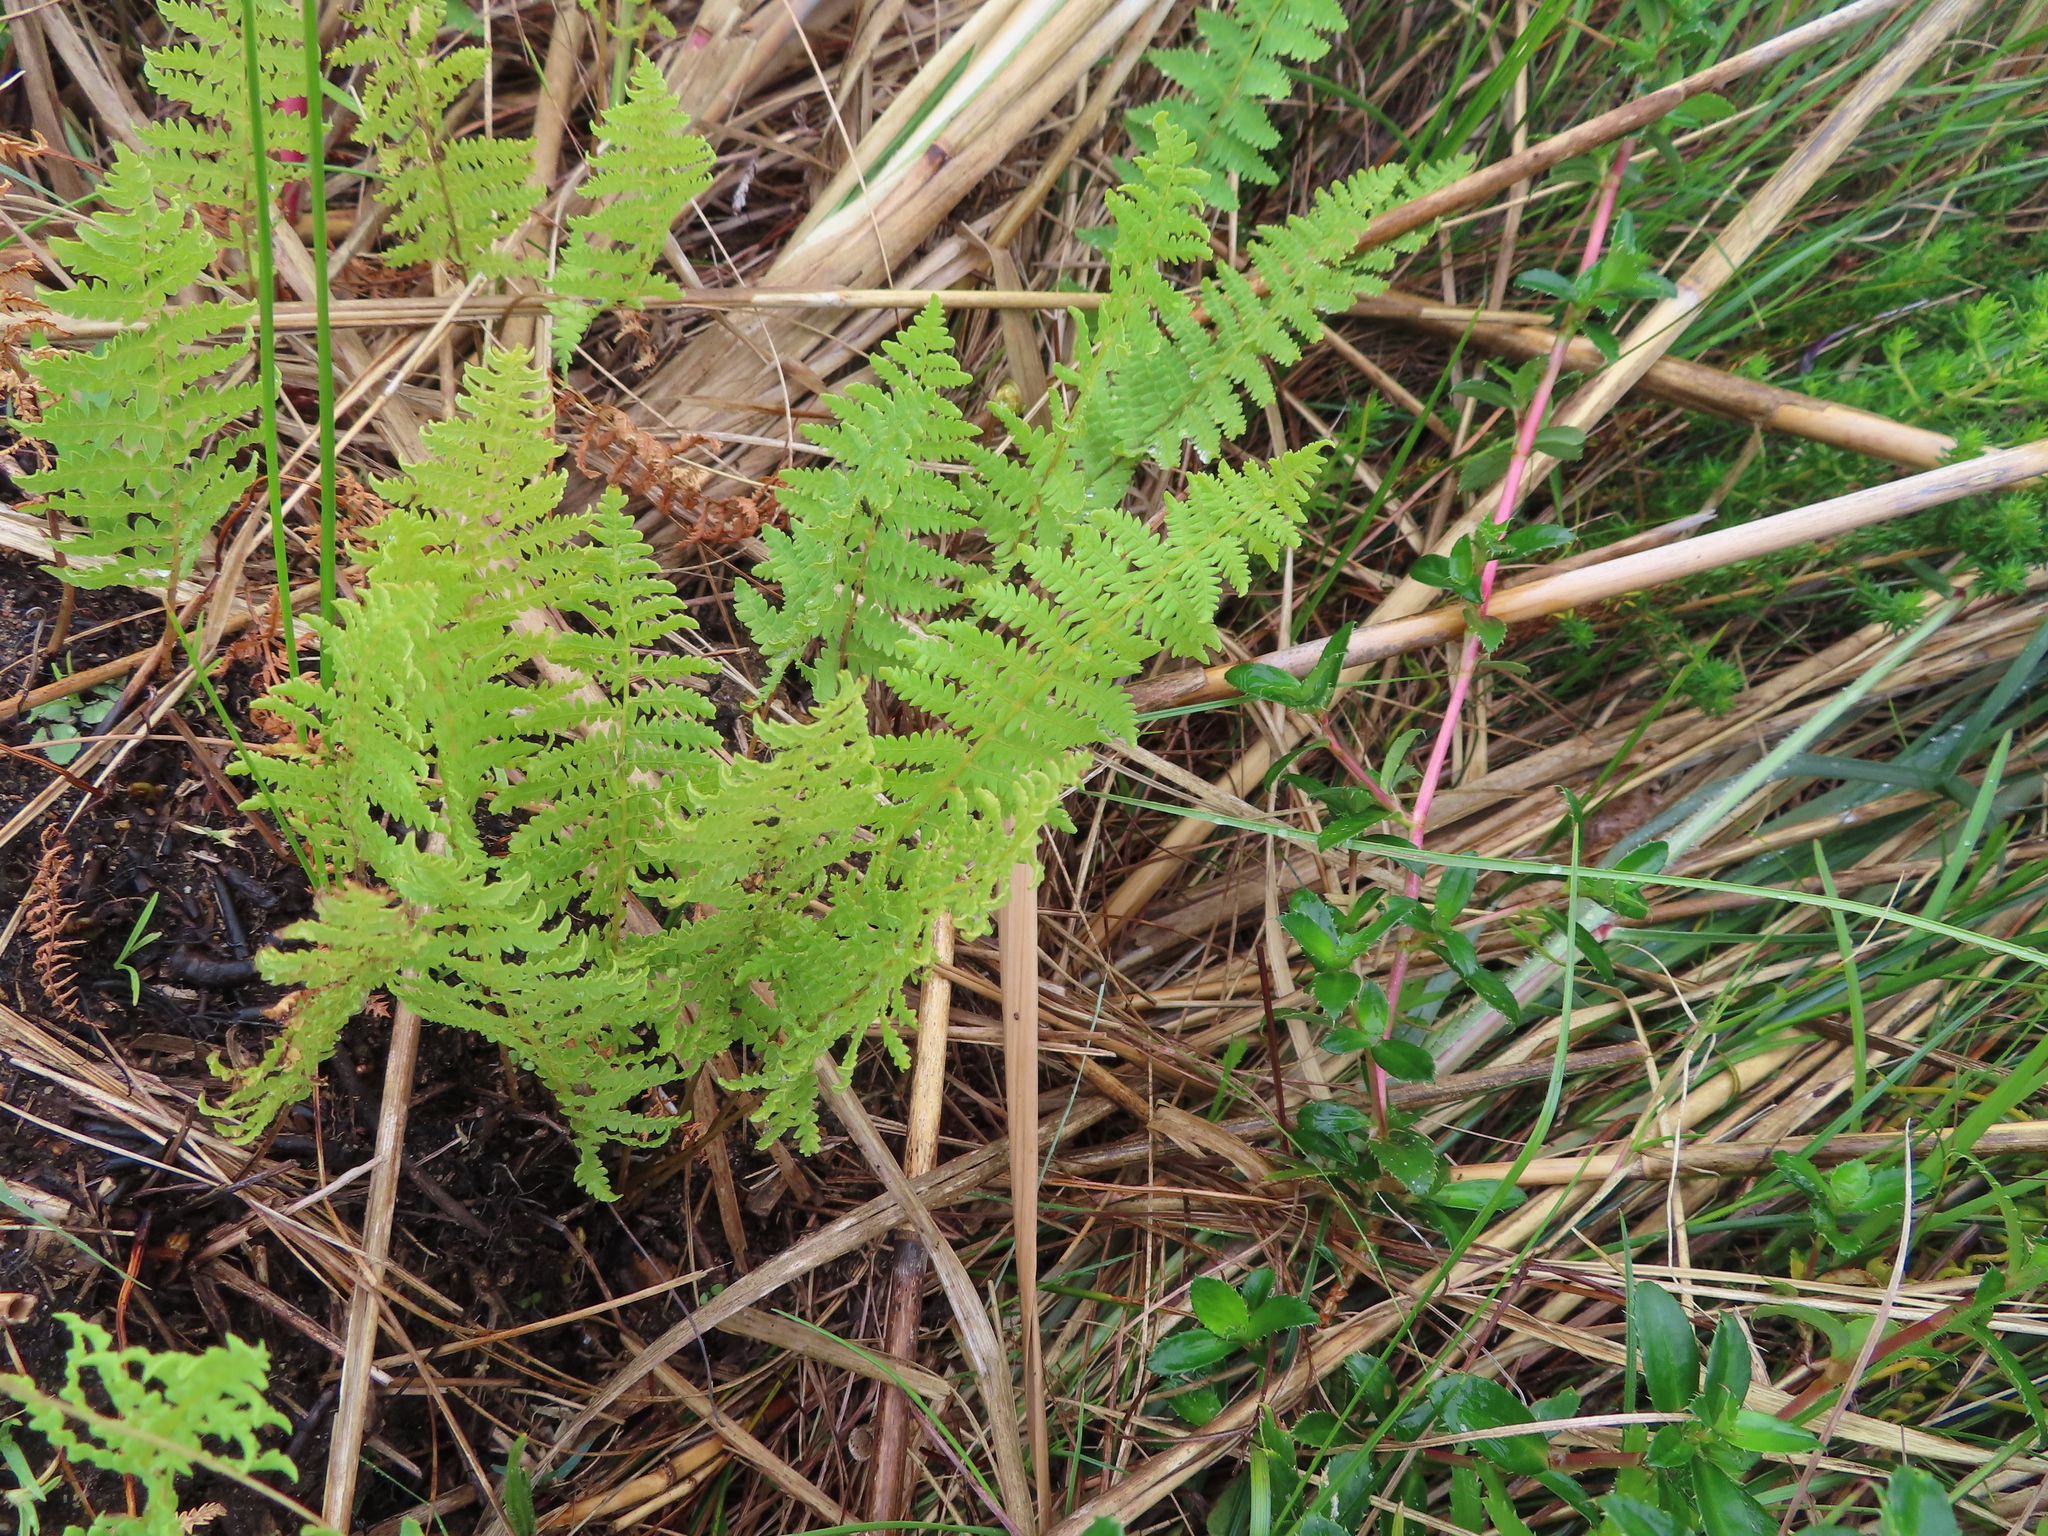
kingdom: Plantae
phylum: Tracheophyta
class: Polypodiopsida
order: Polypodiales
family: Thelypteridaceae
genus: Thelypteris
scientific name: Thelypteris confluens
